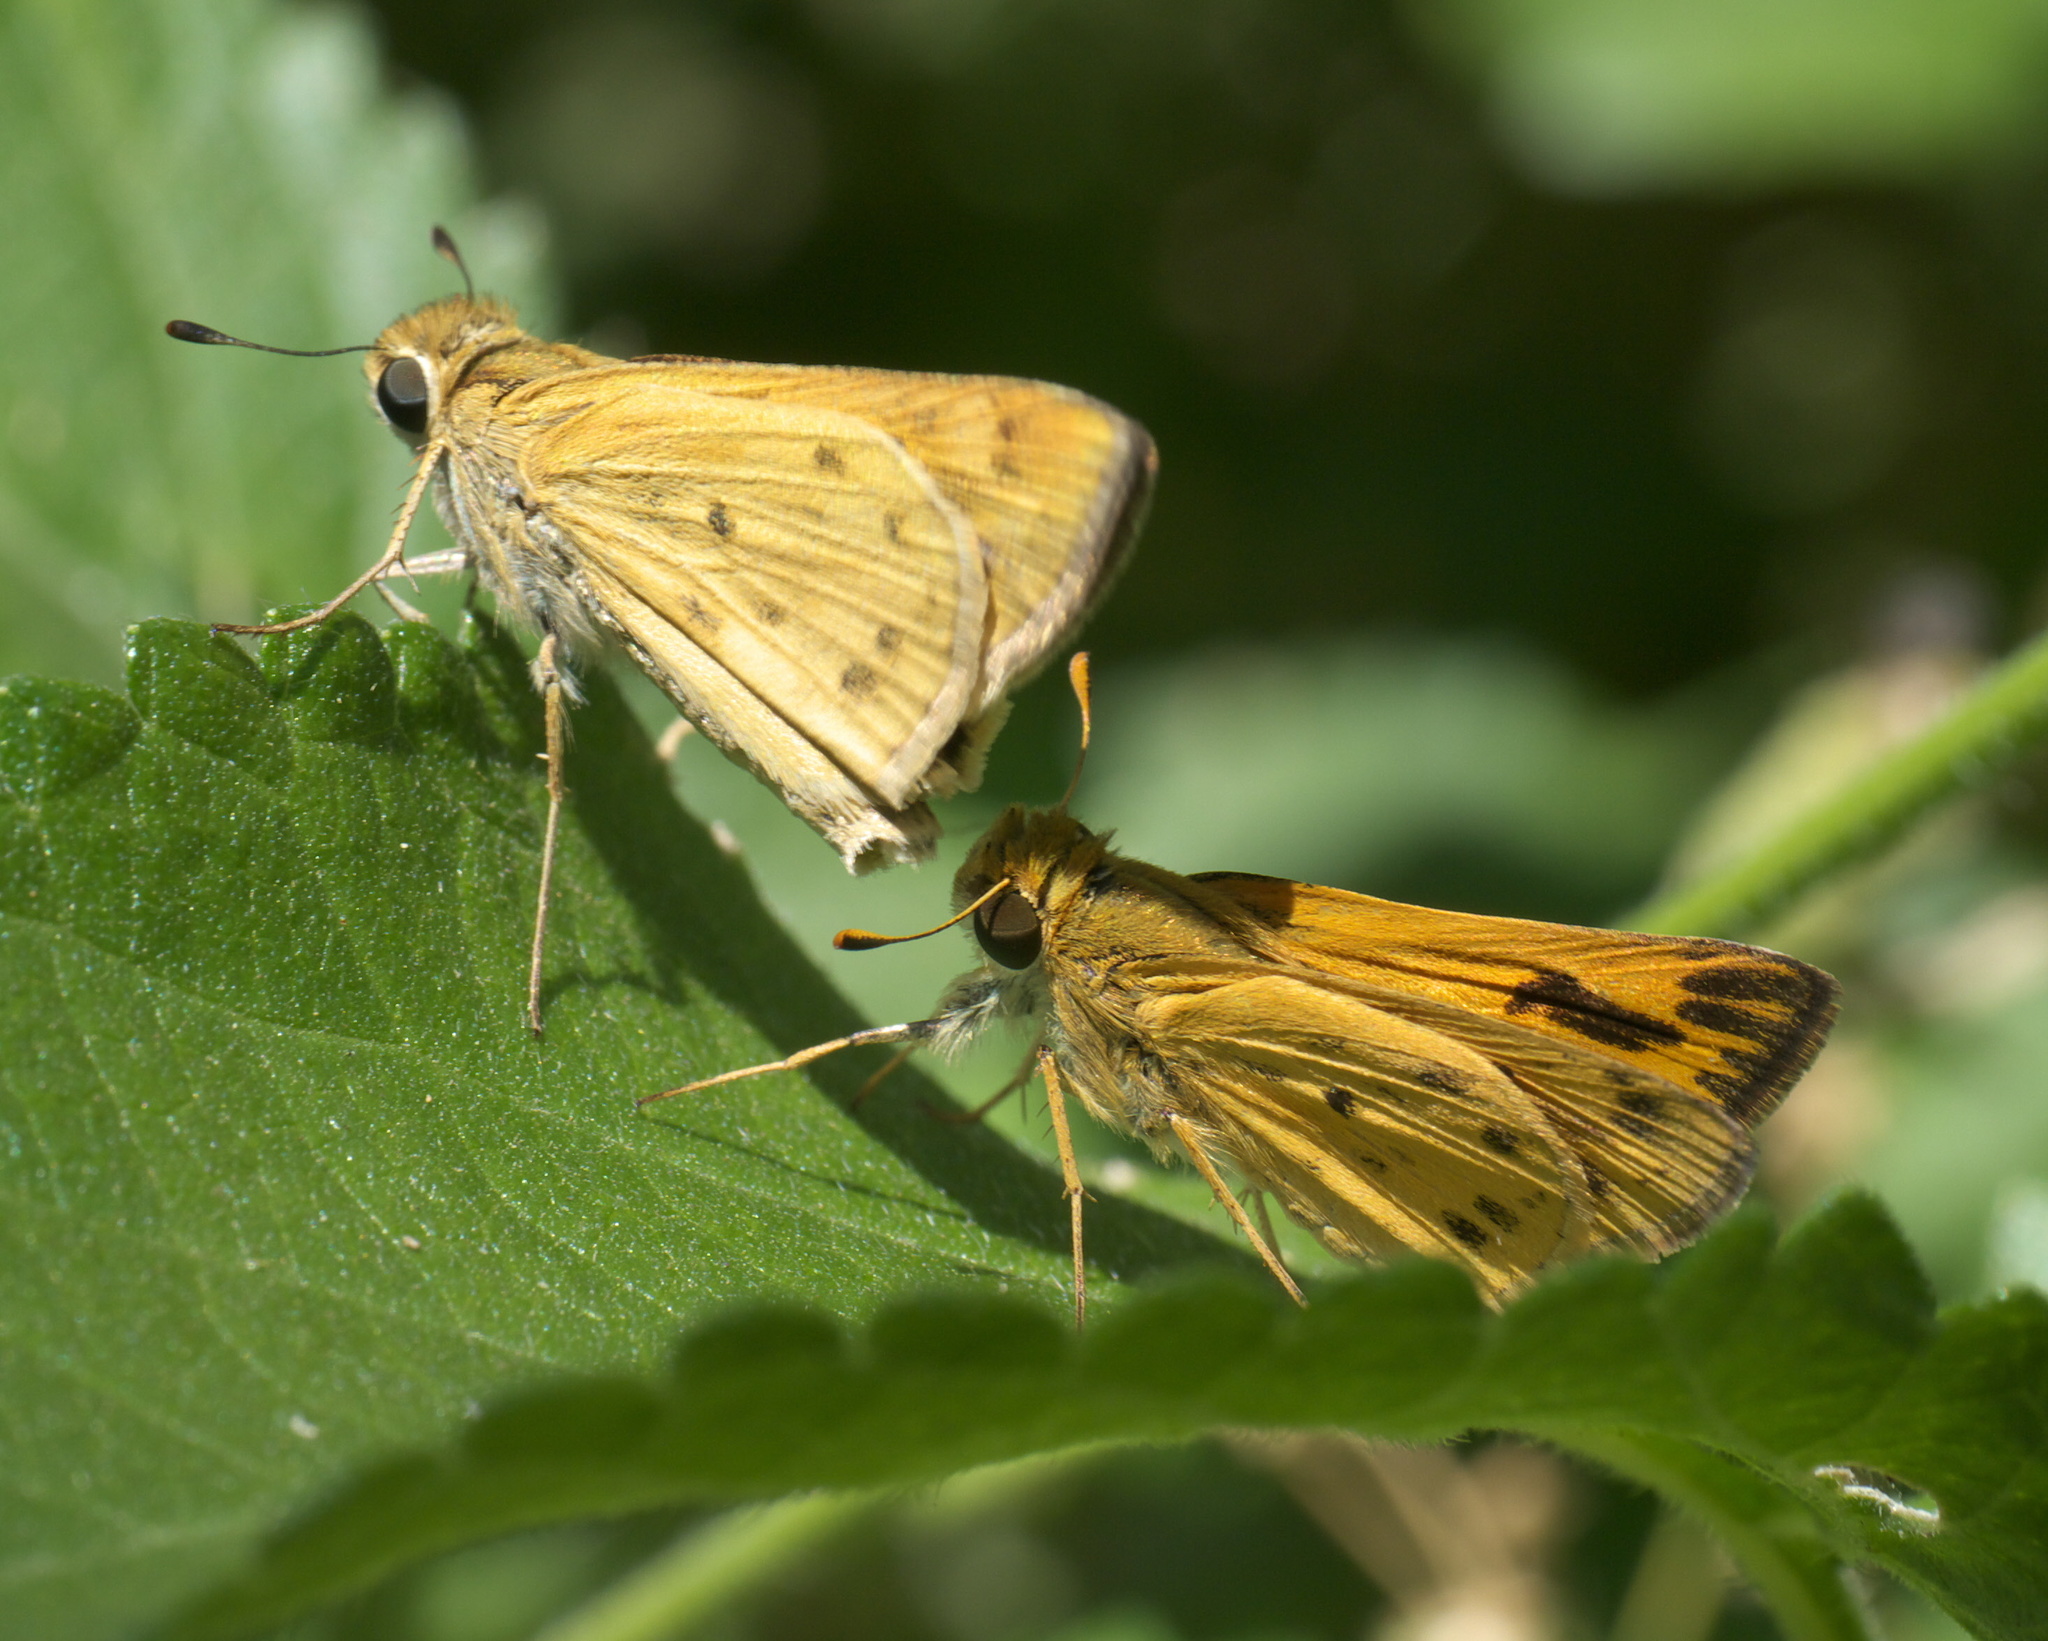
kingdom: Animalia
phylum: Arthropoda
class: Insecta
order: Lepidoptera
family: Hesperiidae
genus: Hylephila
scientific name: Hylephila phyleus
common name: Fiery skipper
